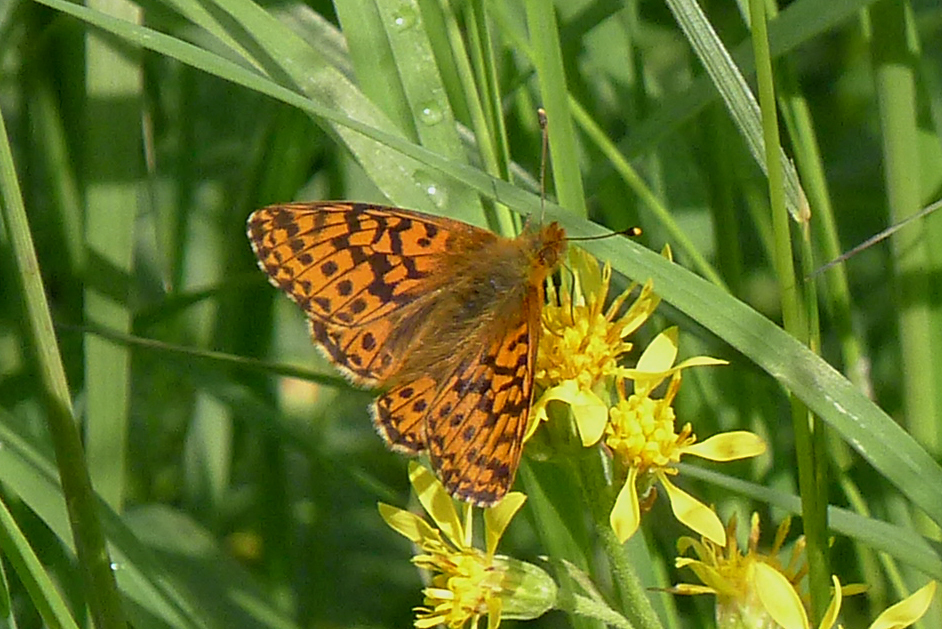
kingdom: Animalia
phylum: Arthropoda
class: Insecta
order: Lepidoptera
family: Nymphalidae
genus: Boloria
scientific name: Boloria aquilonaris
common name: Cranberry fritillary
